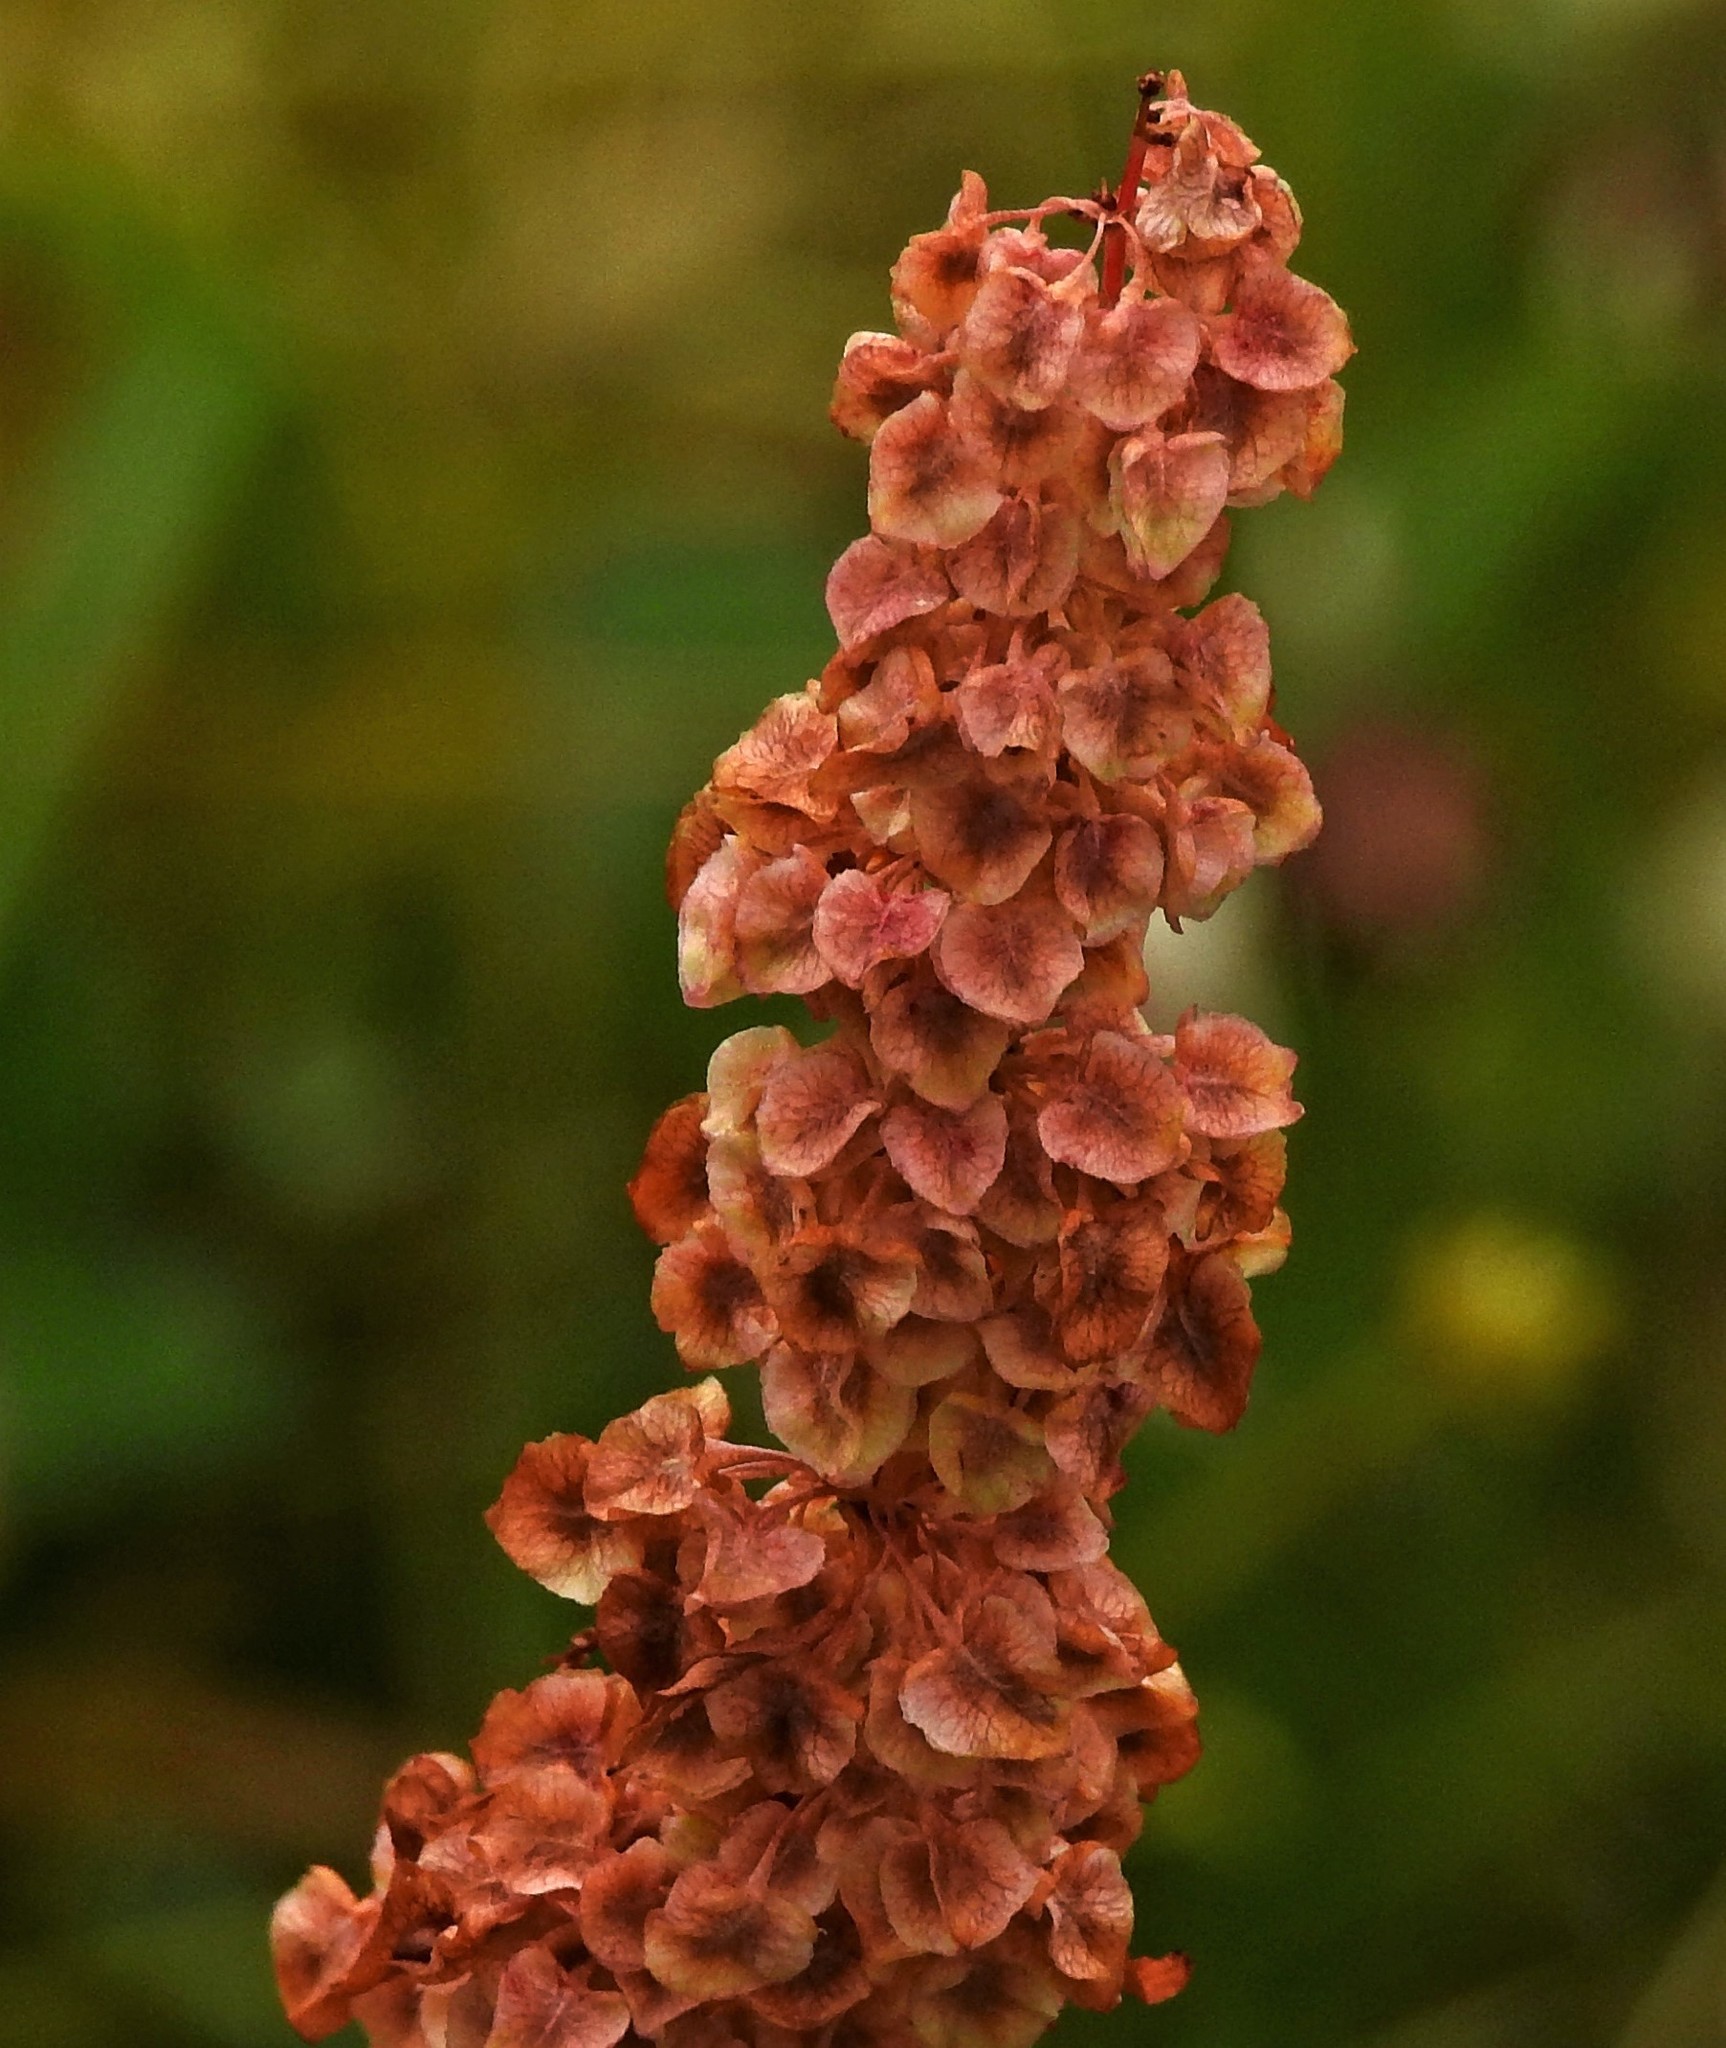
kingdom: Plantae
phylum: Tracheophyta
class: Magnoliopsida
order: Caryophyllales
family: Polygonaceae
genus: Rumex
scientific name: Rumex crispus
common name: Curled dock
